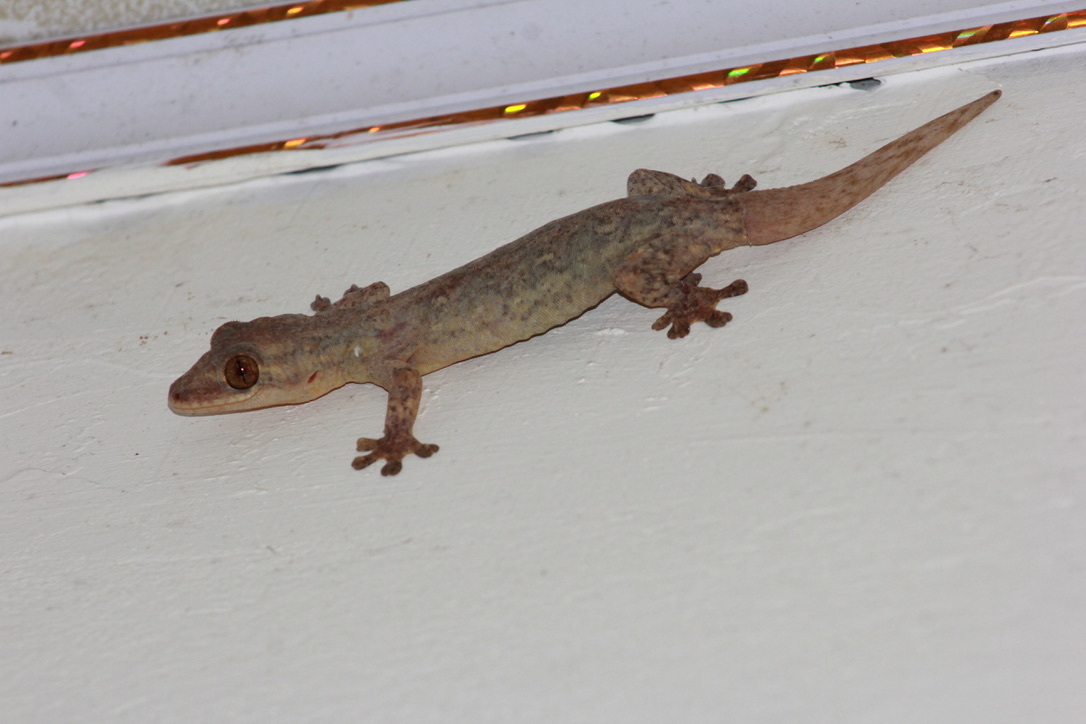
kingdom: Animalia
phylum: Chordata
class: Squamata
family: Phyllodactylidae
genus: Thecadactylus
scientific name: Thecadactylus rapicauda
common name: Turnip-tailed gecko
